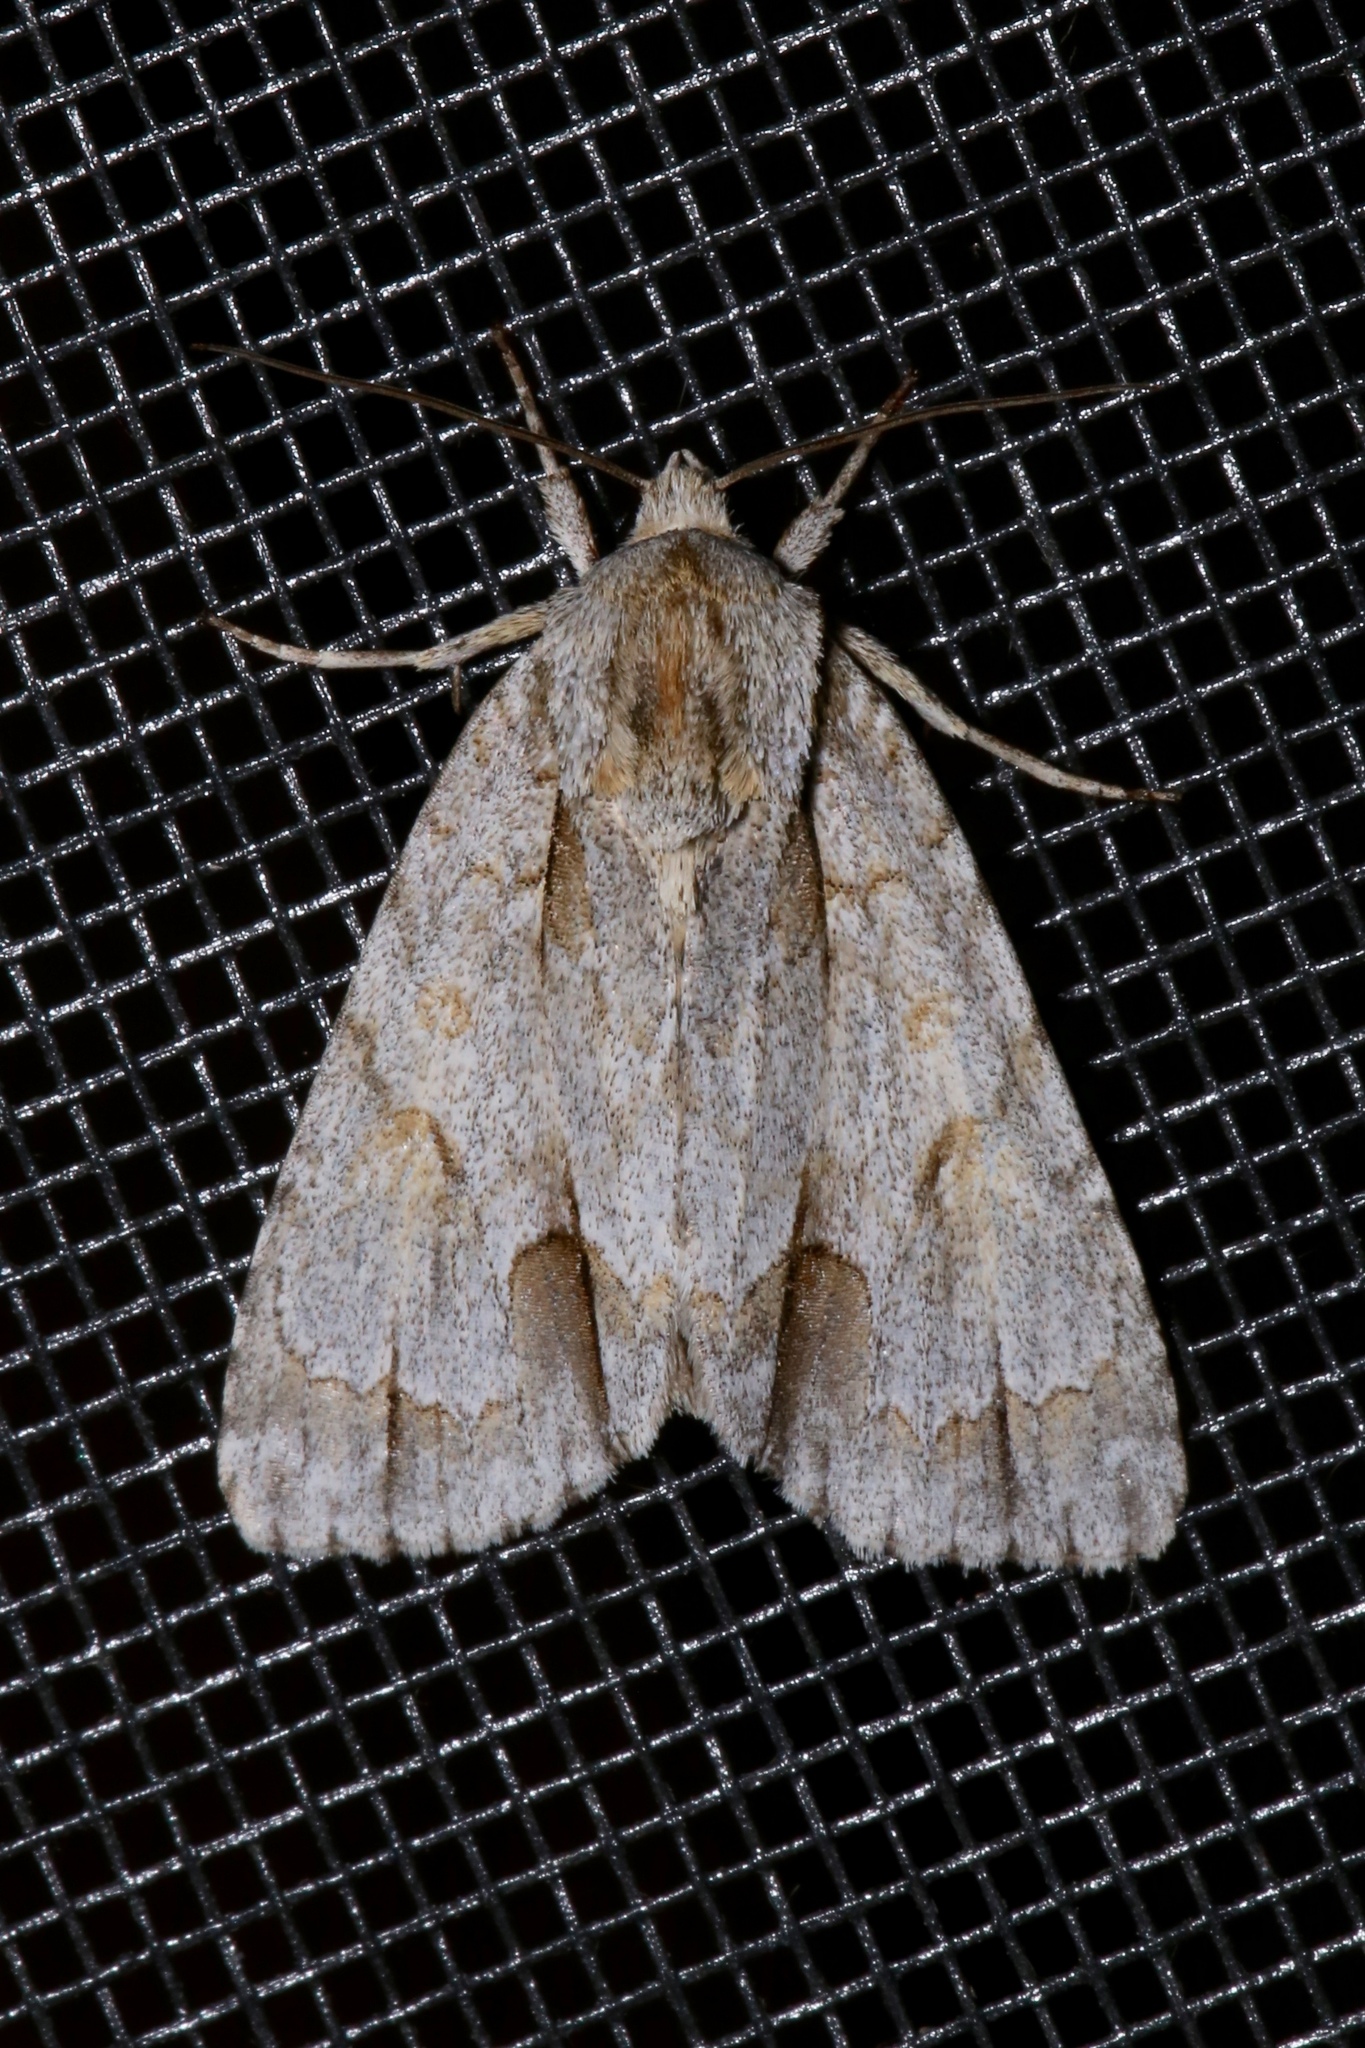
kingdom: Animalia
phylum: Arthropoda
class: Insecta
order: Lepidoptera
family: Noctuidae
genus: Acronicta
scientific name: Acronicta morula
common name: Ochre dagger
